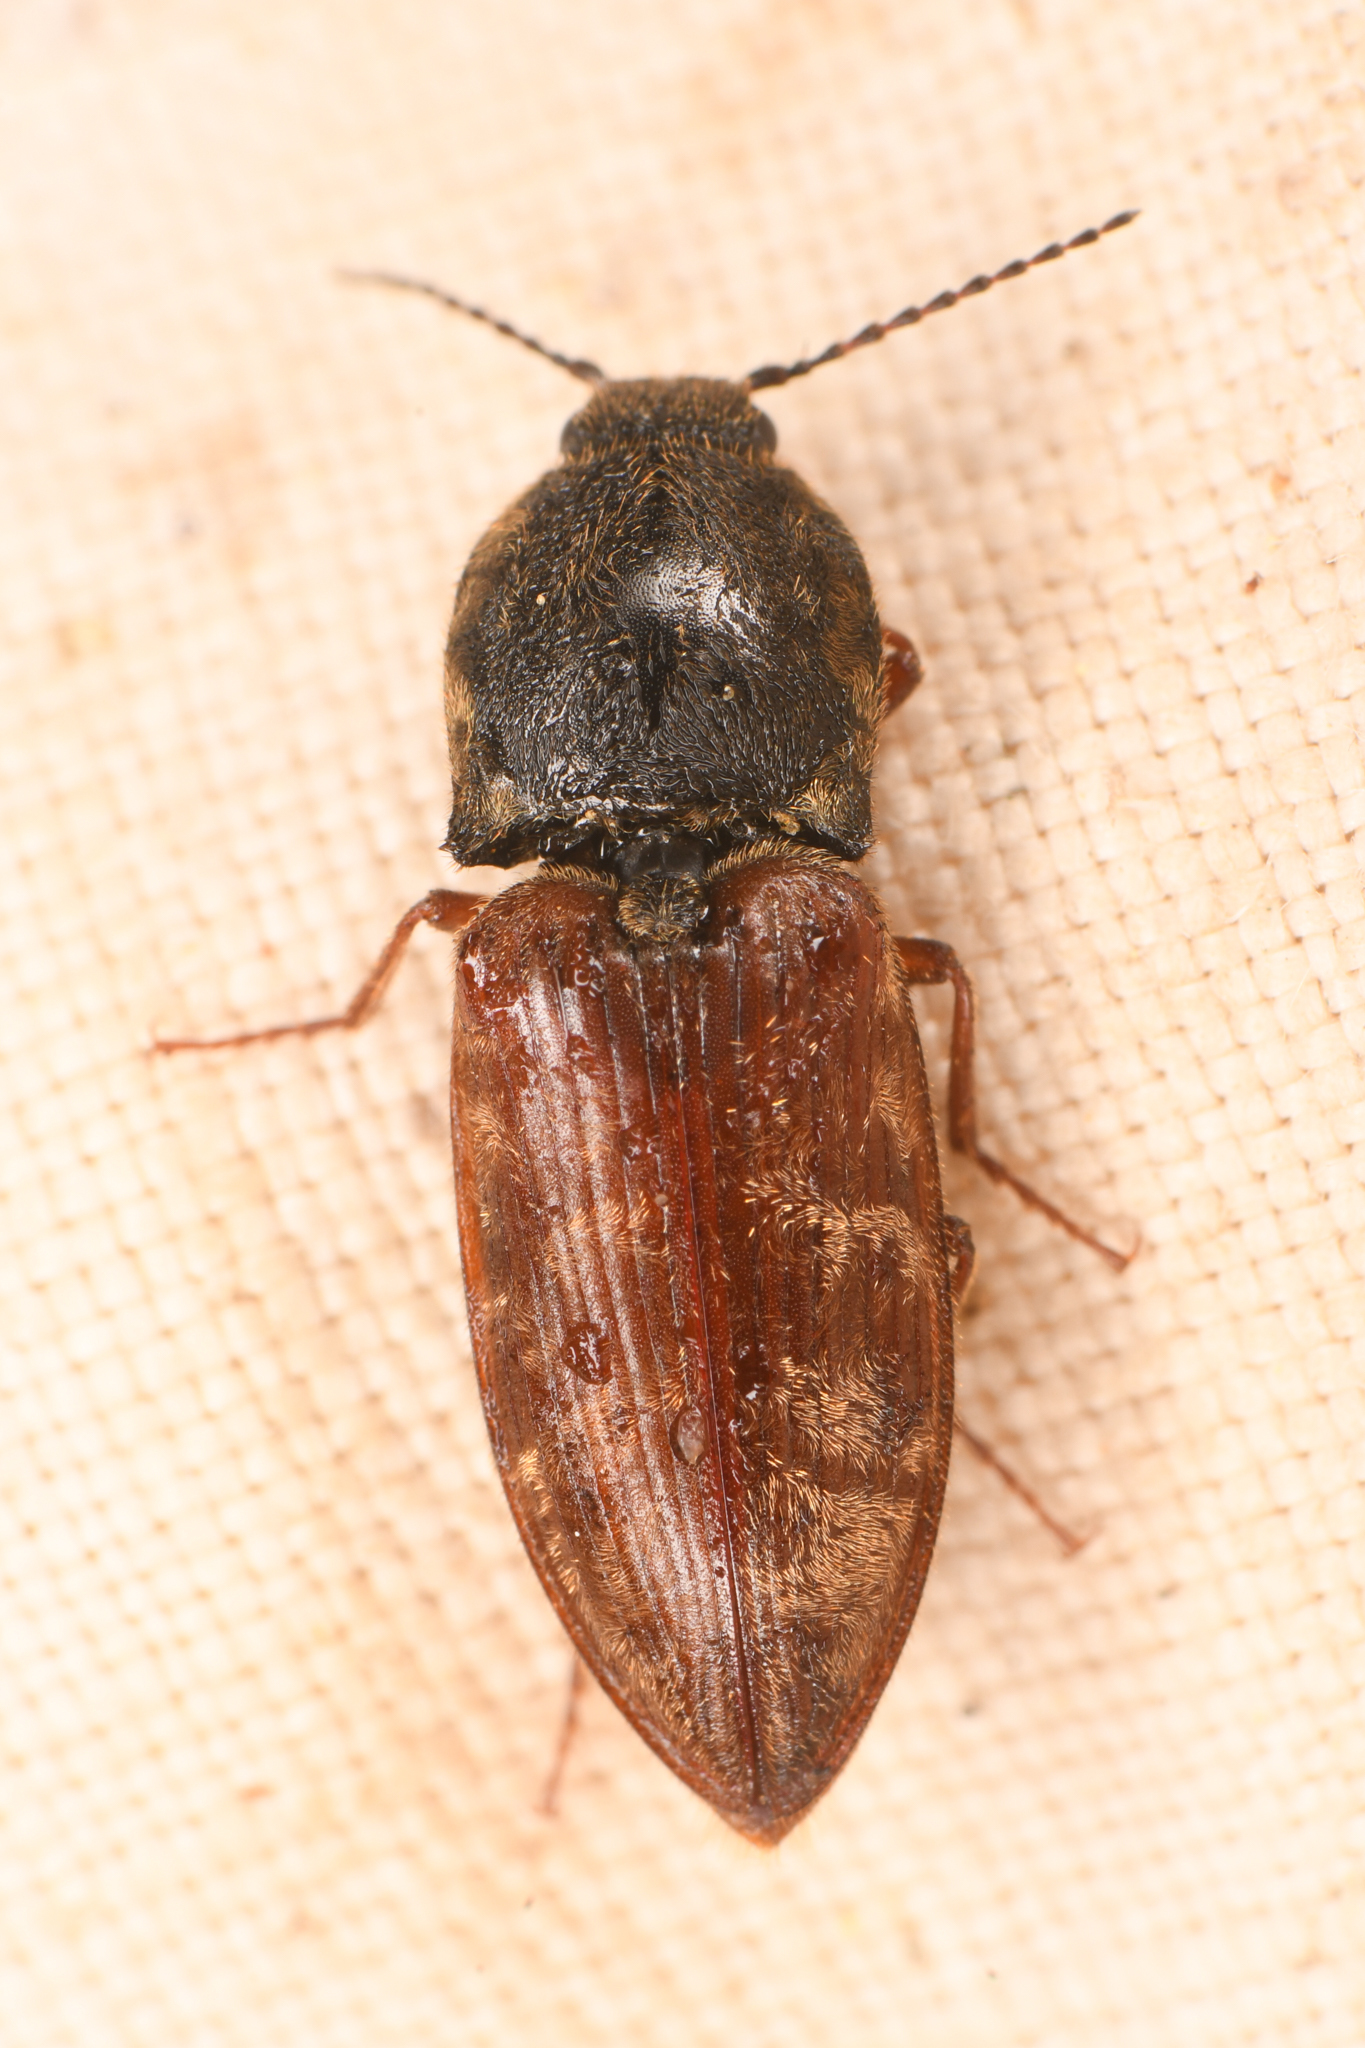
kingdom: Animalia
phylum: Arthropoda
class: Insecta
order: Coleoptera
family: Elateridae
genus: Prosternon
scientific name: Prosternon bombycinum
